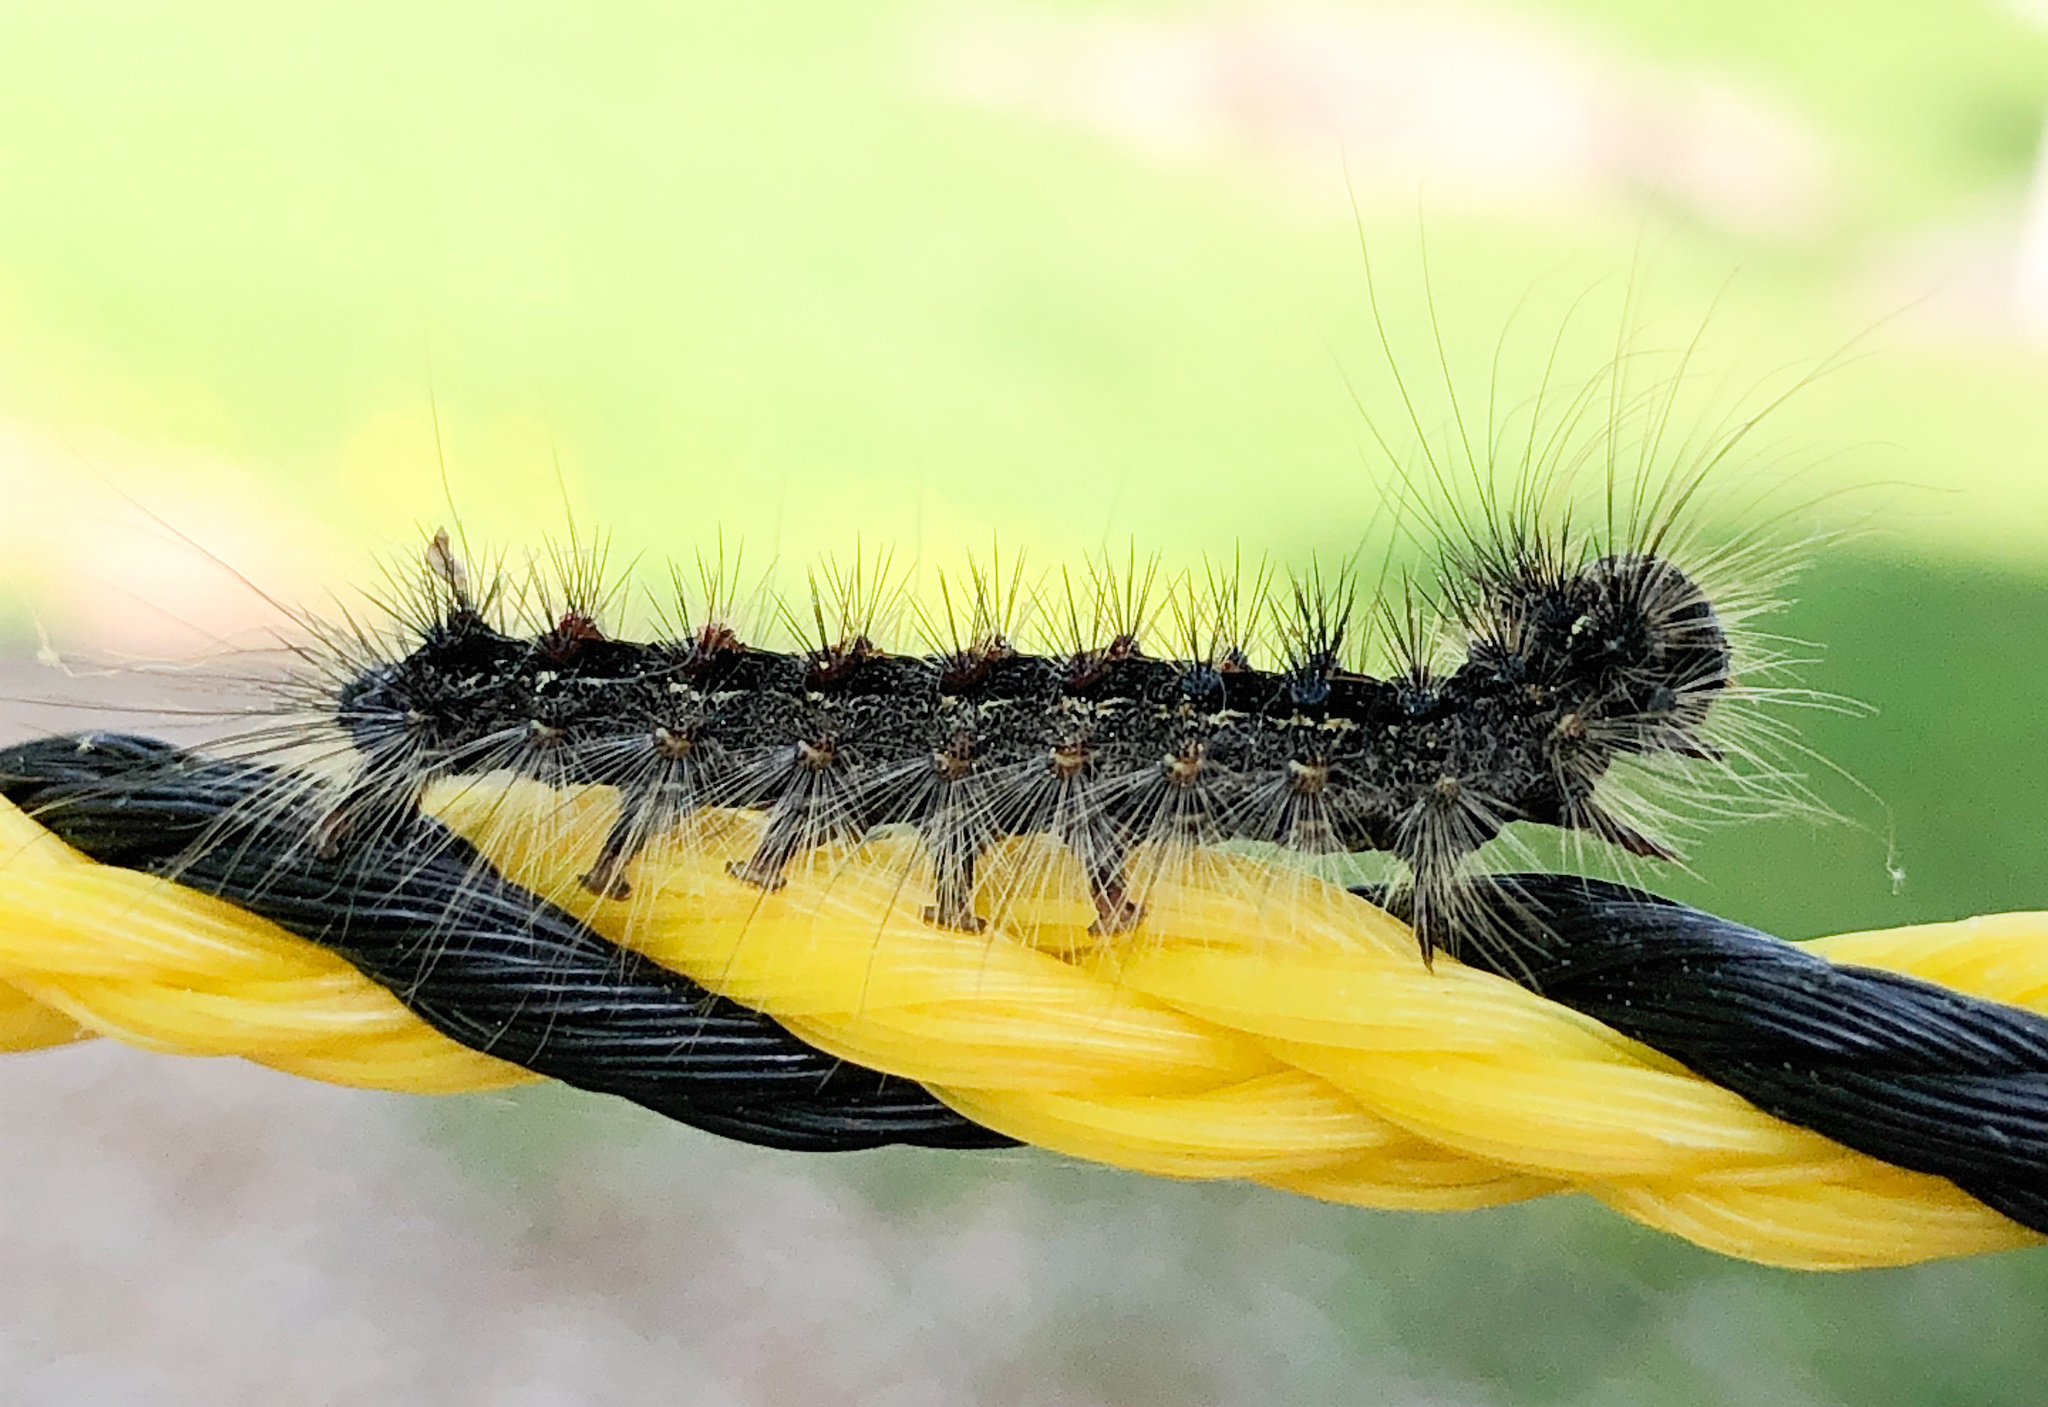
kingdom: Animalia
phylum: Arthropoda
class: Insecta
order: Lepidoptera
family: Erebidae
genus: Lymantria
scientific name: Lymantria dispar
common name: Gypsy moth
